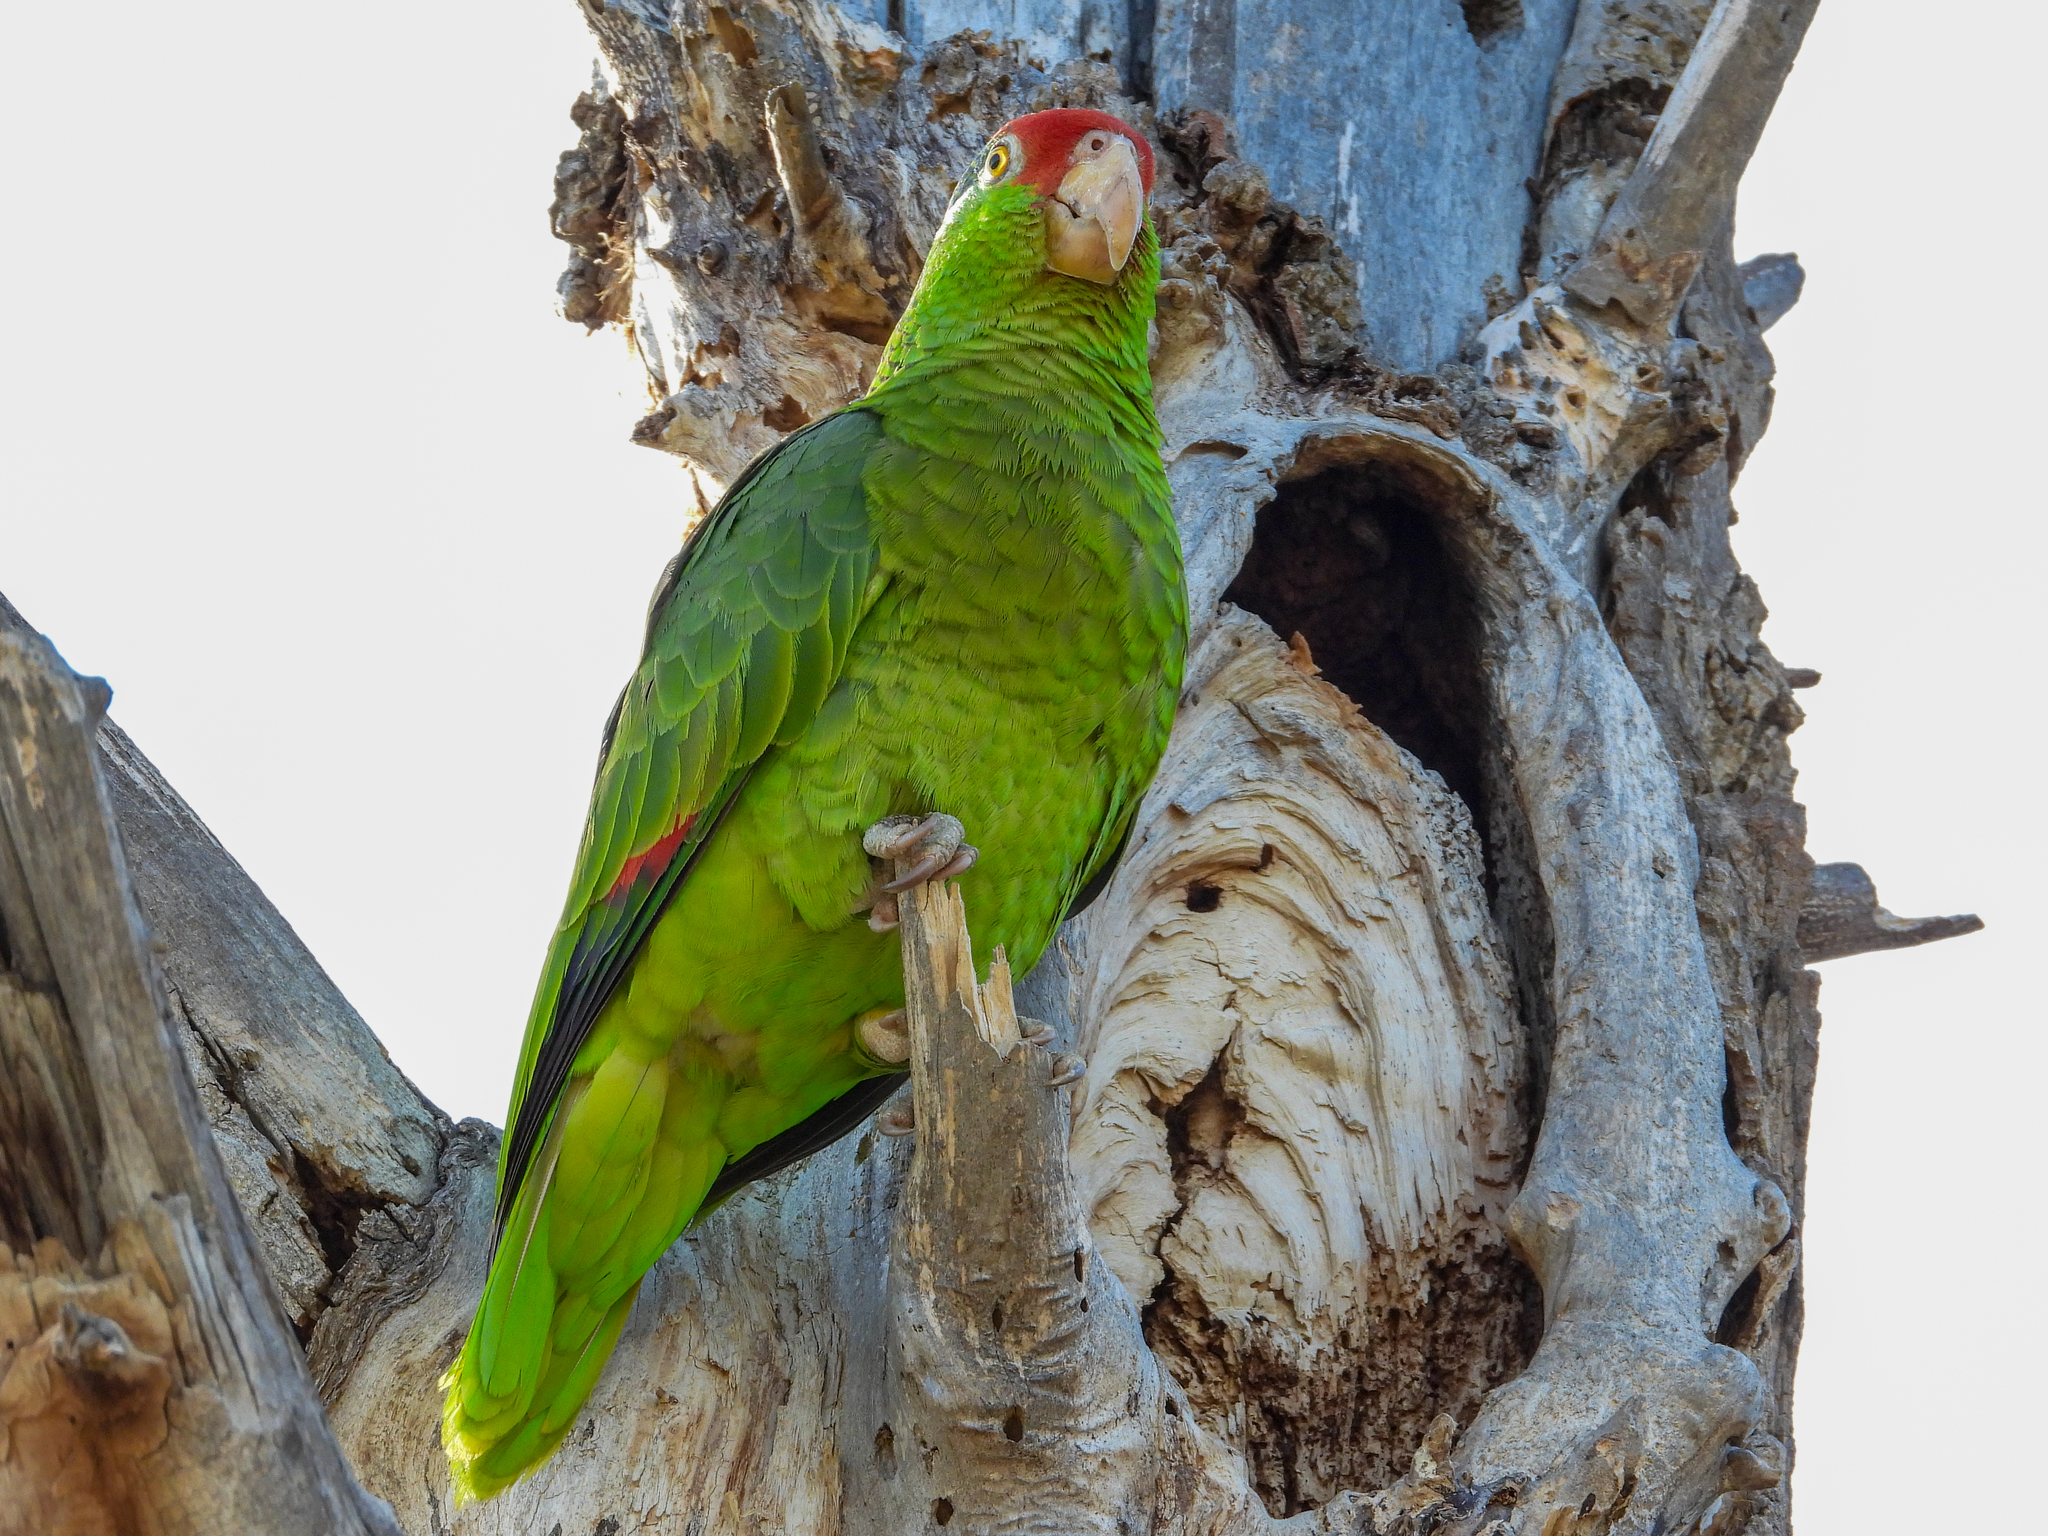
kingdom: Animalia
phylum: Chordata
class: Aves
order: Psittaciformes
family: Psittacidae
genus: Amazona
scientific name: Amazona viridigenalis
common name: Red-crowned amazon
